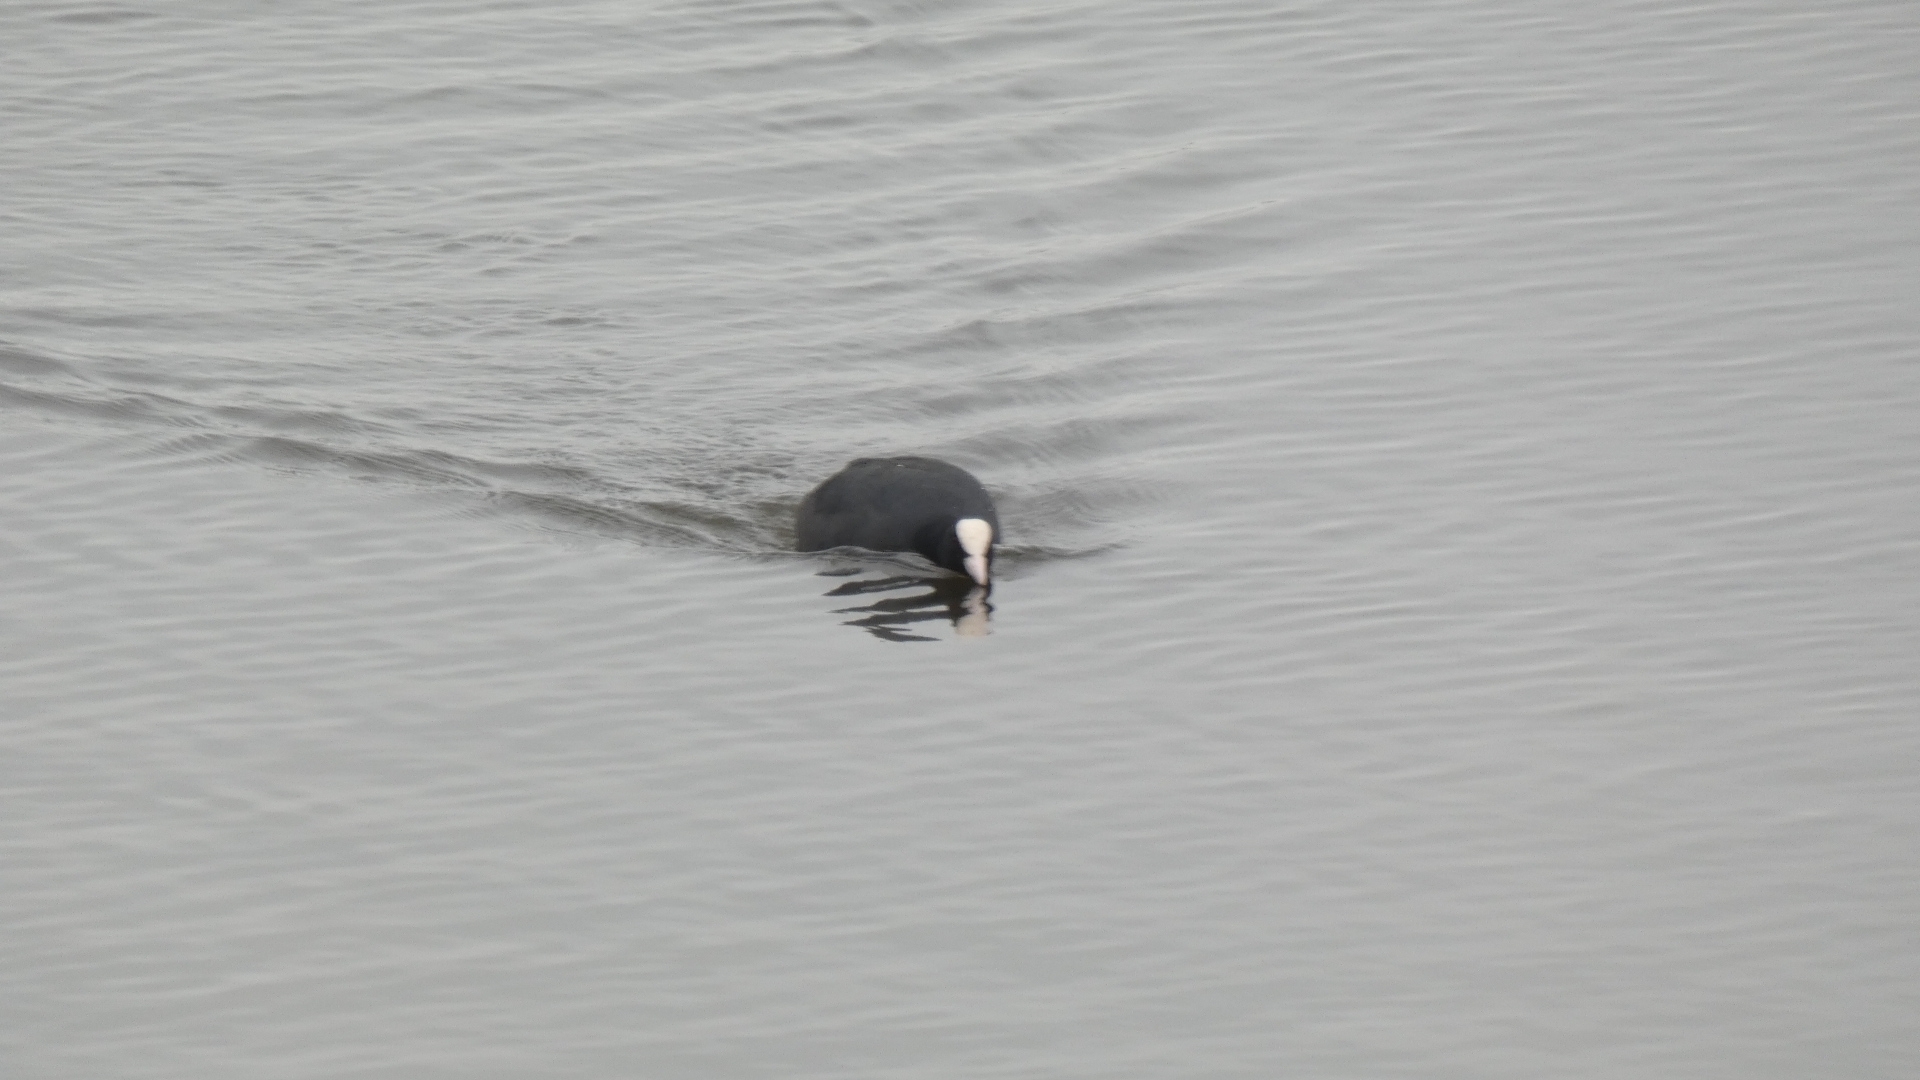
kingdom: Animalia
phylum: Chordata
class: Aves
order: Gruiformes
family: Rallidae
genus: Fulica
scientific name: Fulica atra
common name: Eurasian coot
